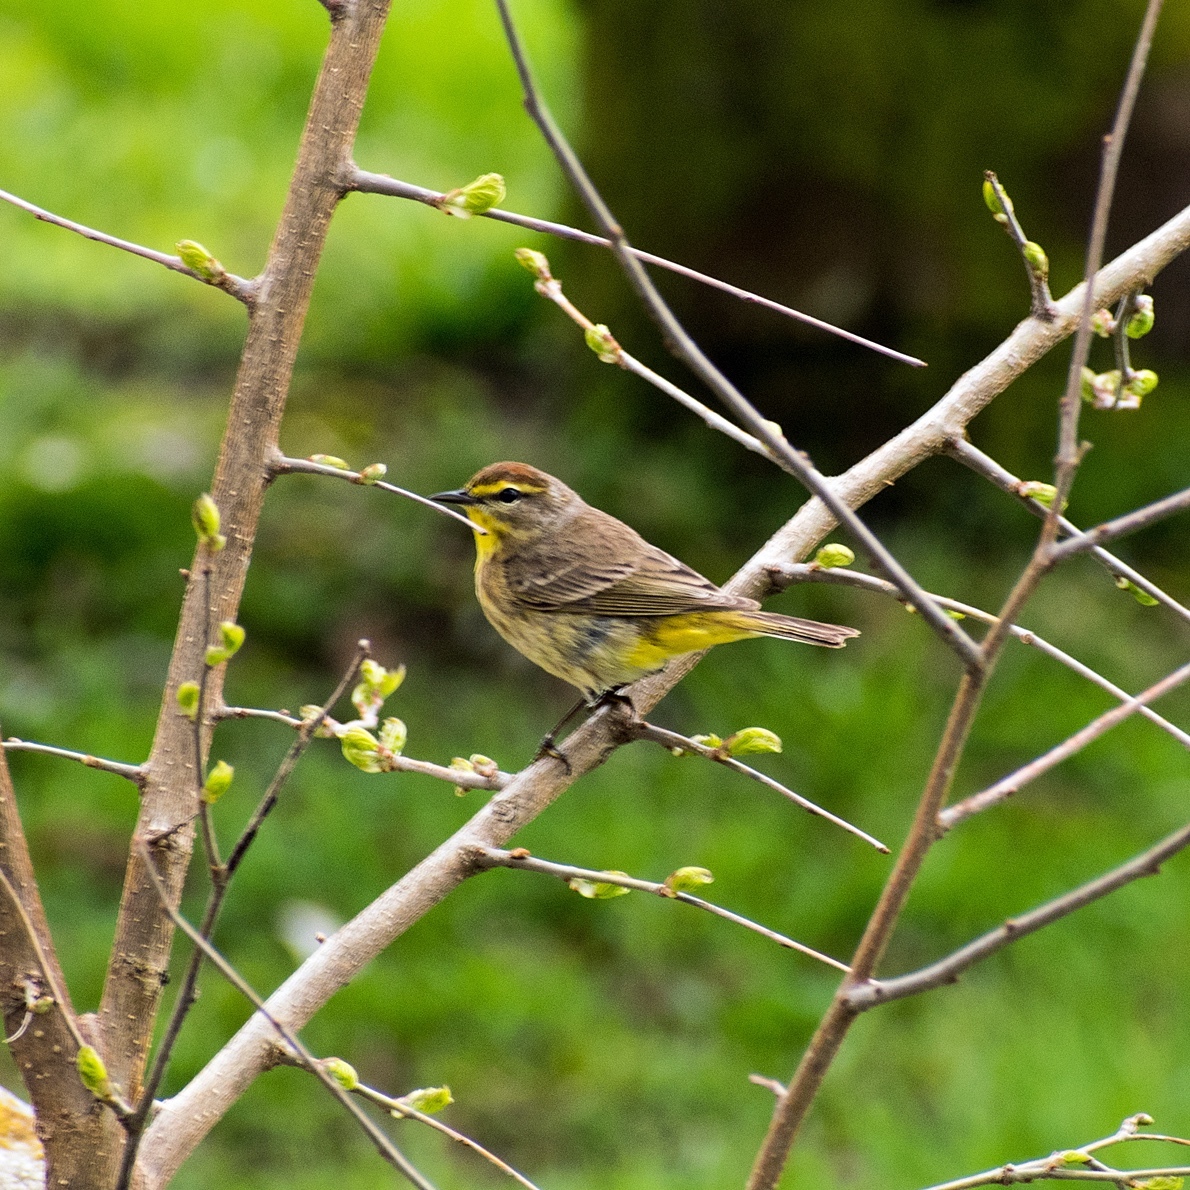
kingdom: Animalia
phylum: Chordata
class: Aves
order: Passeriformes
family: Parulidae
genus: Setophaga
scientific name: Setophaga palmarum
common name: Palm warbler
